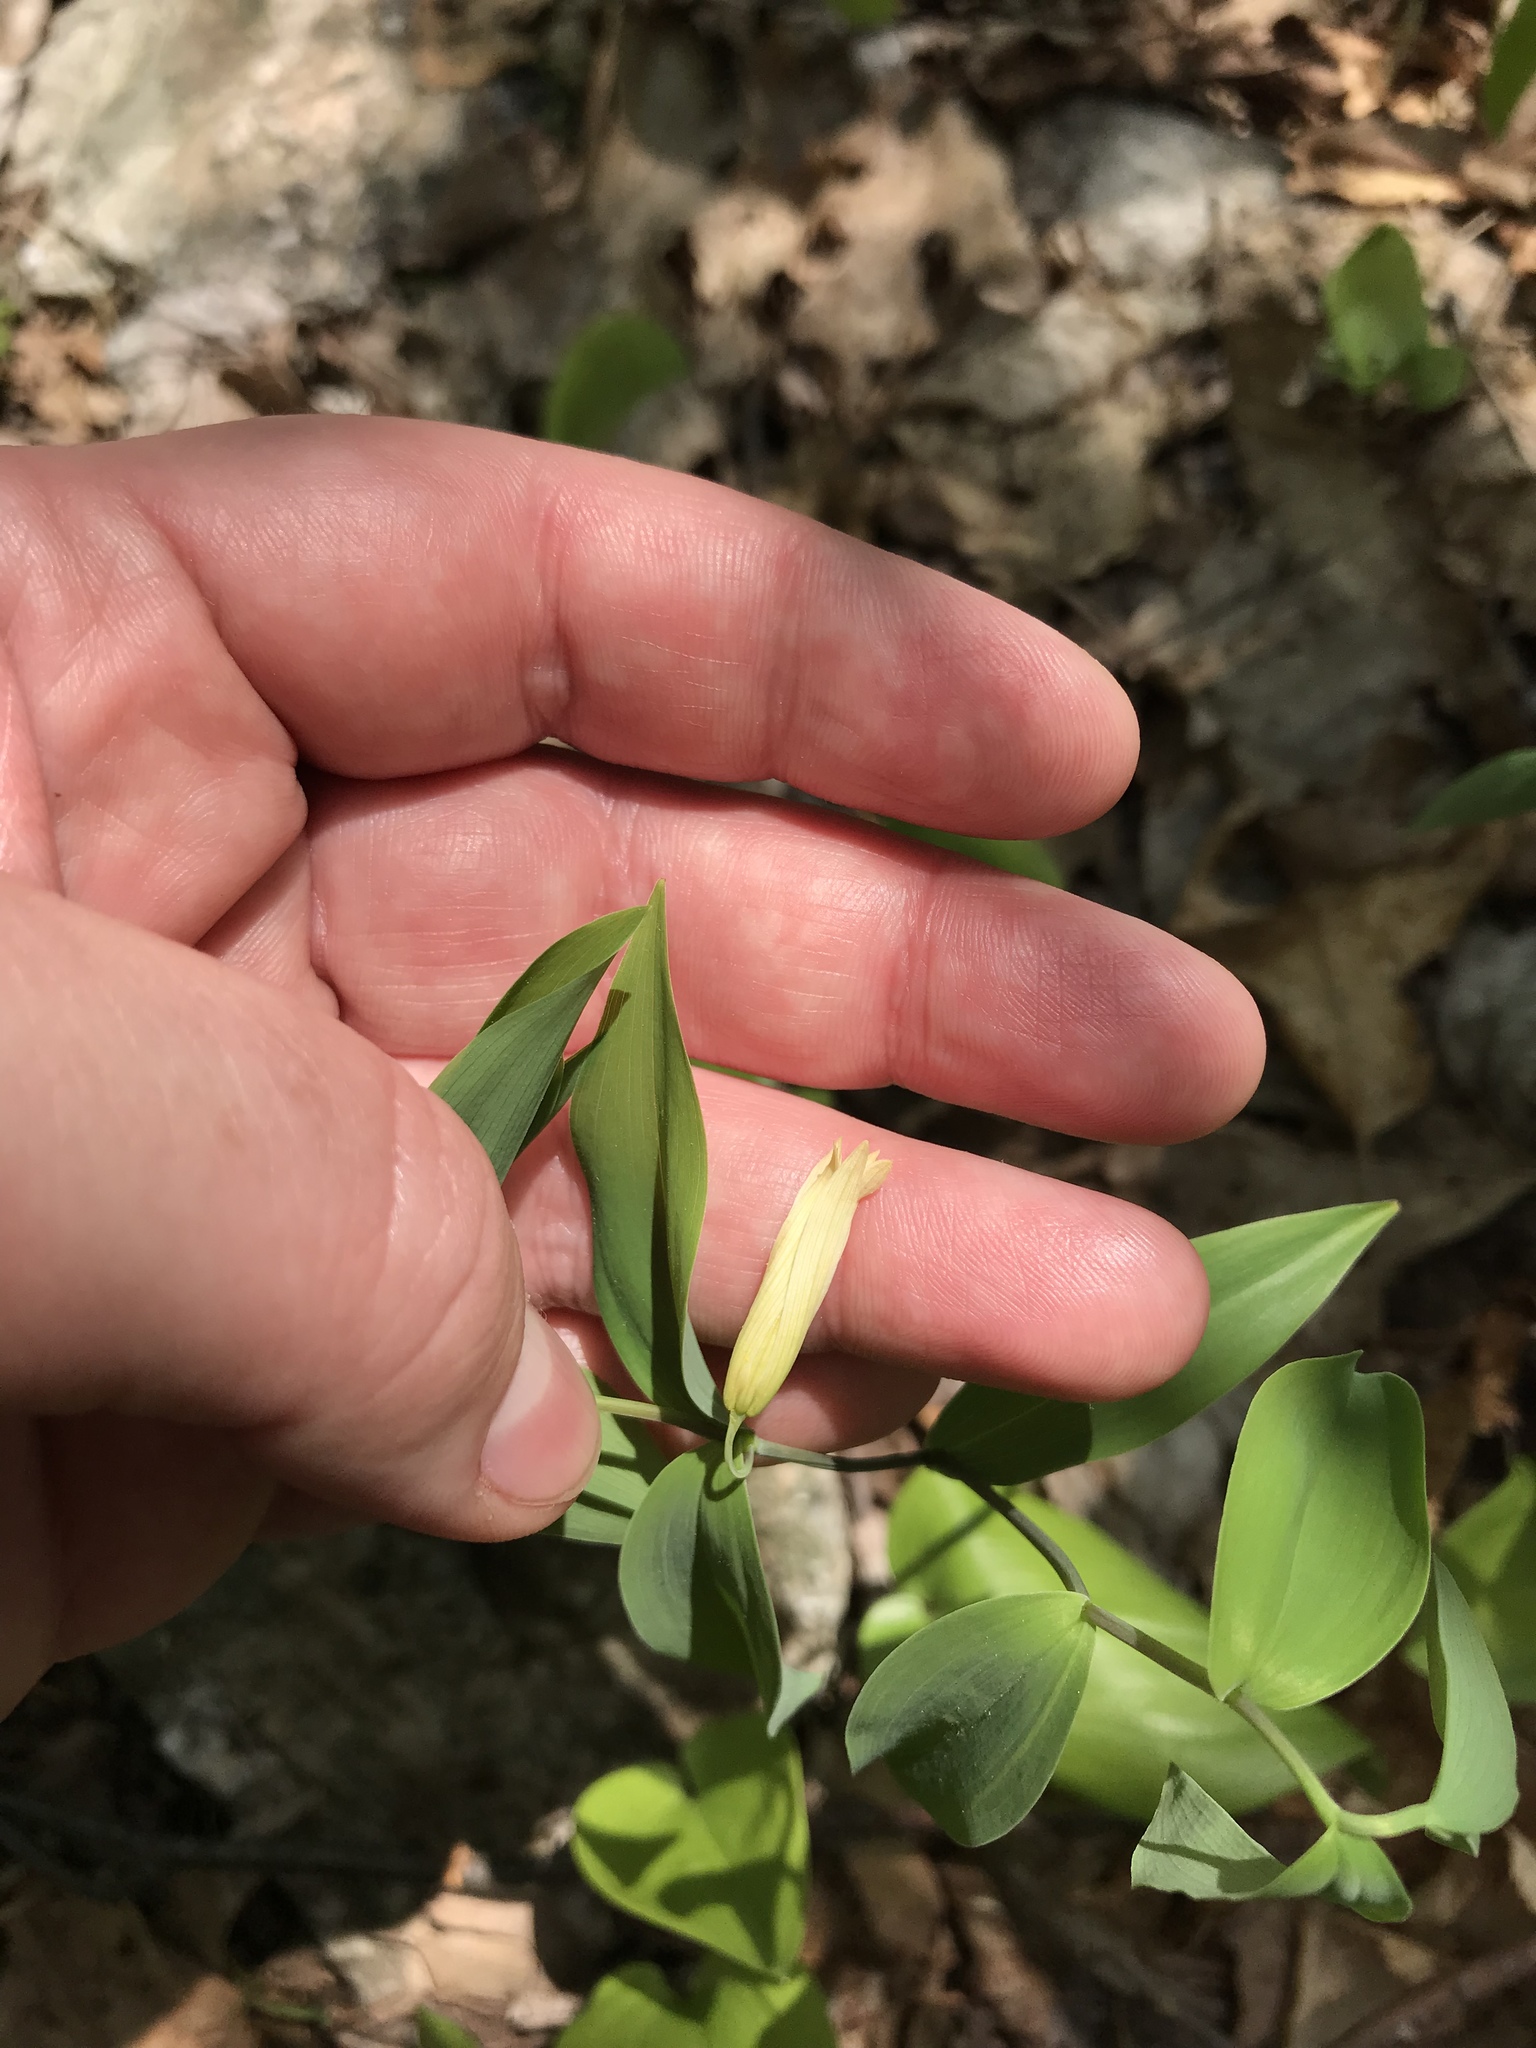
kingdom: Plantae
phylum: Tracheophyta
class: Liliopsida
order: Liliales
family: Colchicaceae
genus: Uvularia
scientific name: Uvularia sessilifolia
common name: Straw-lily
